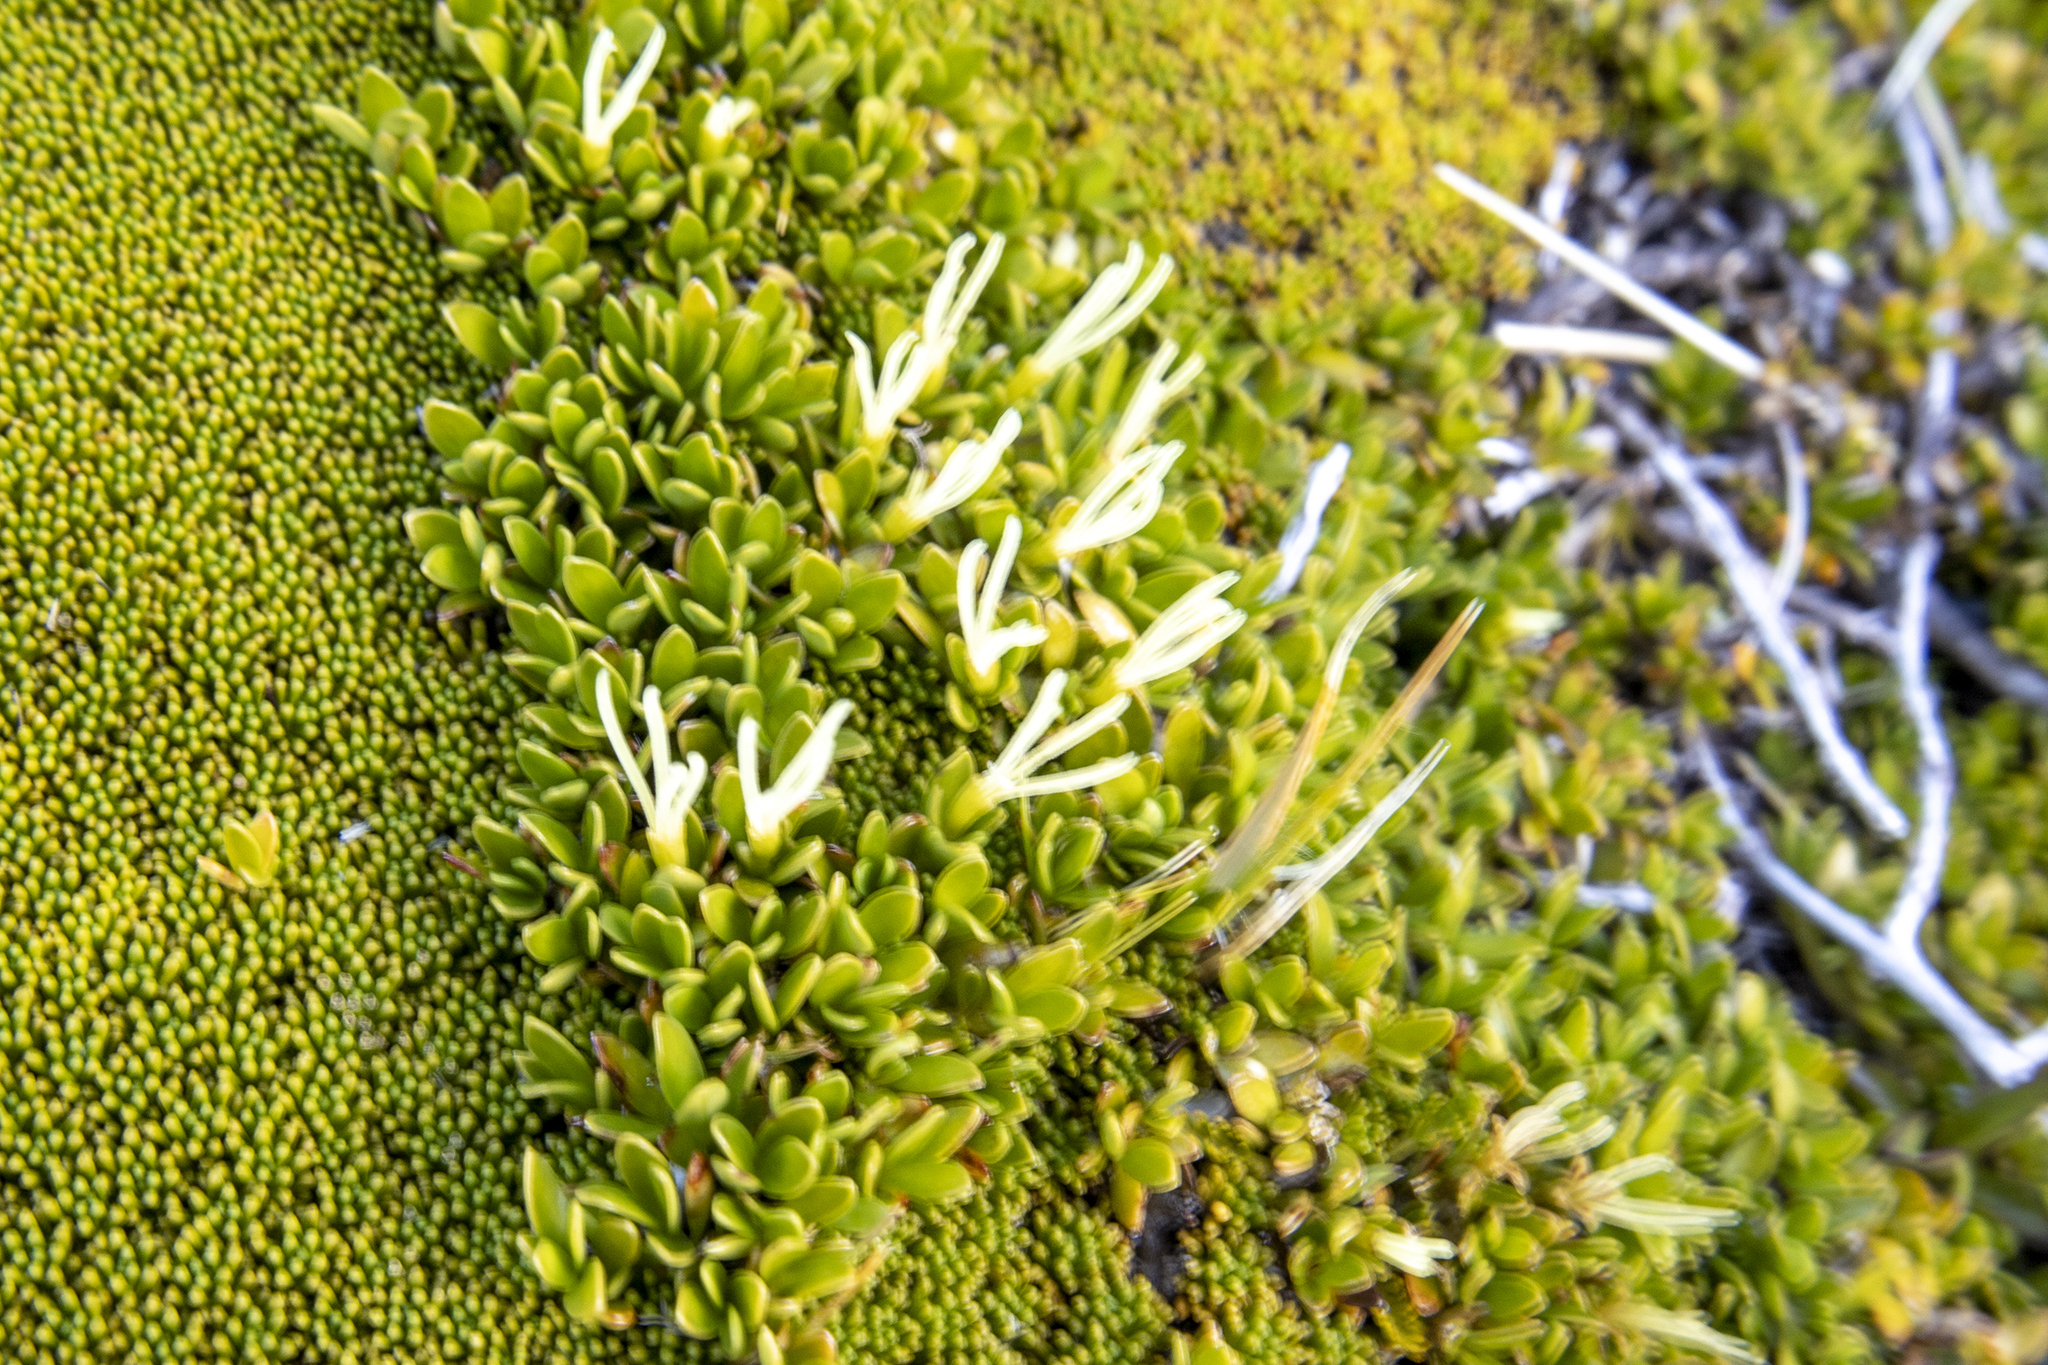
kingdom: Plantae
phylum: Tracheophyta
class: Magnoliopsida
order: Gentianales
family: Rubiaceae
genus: Coprosma
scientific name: Coprosma perpusilla
